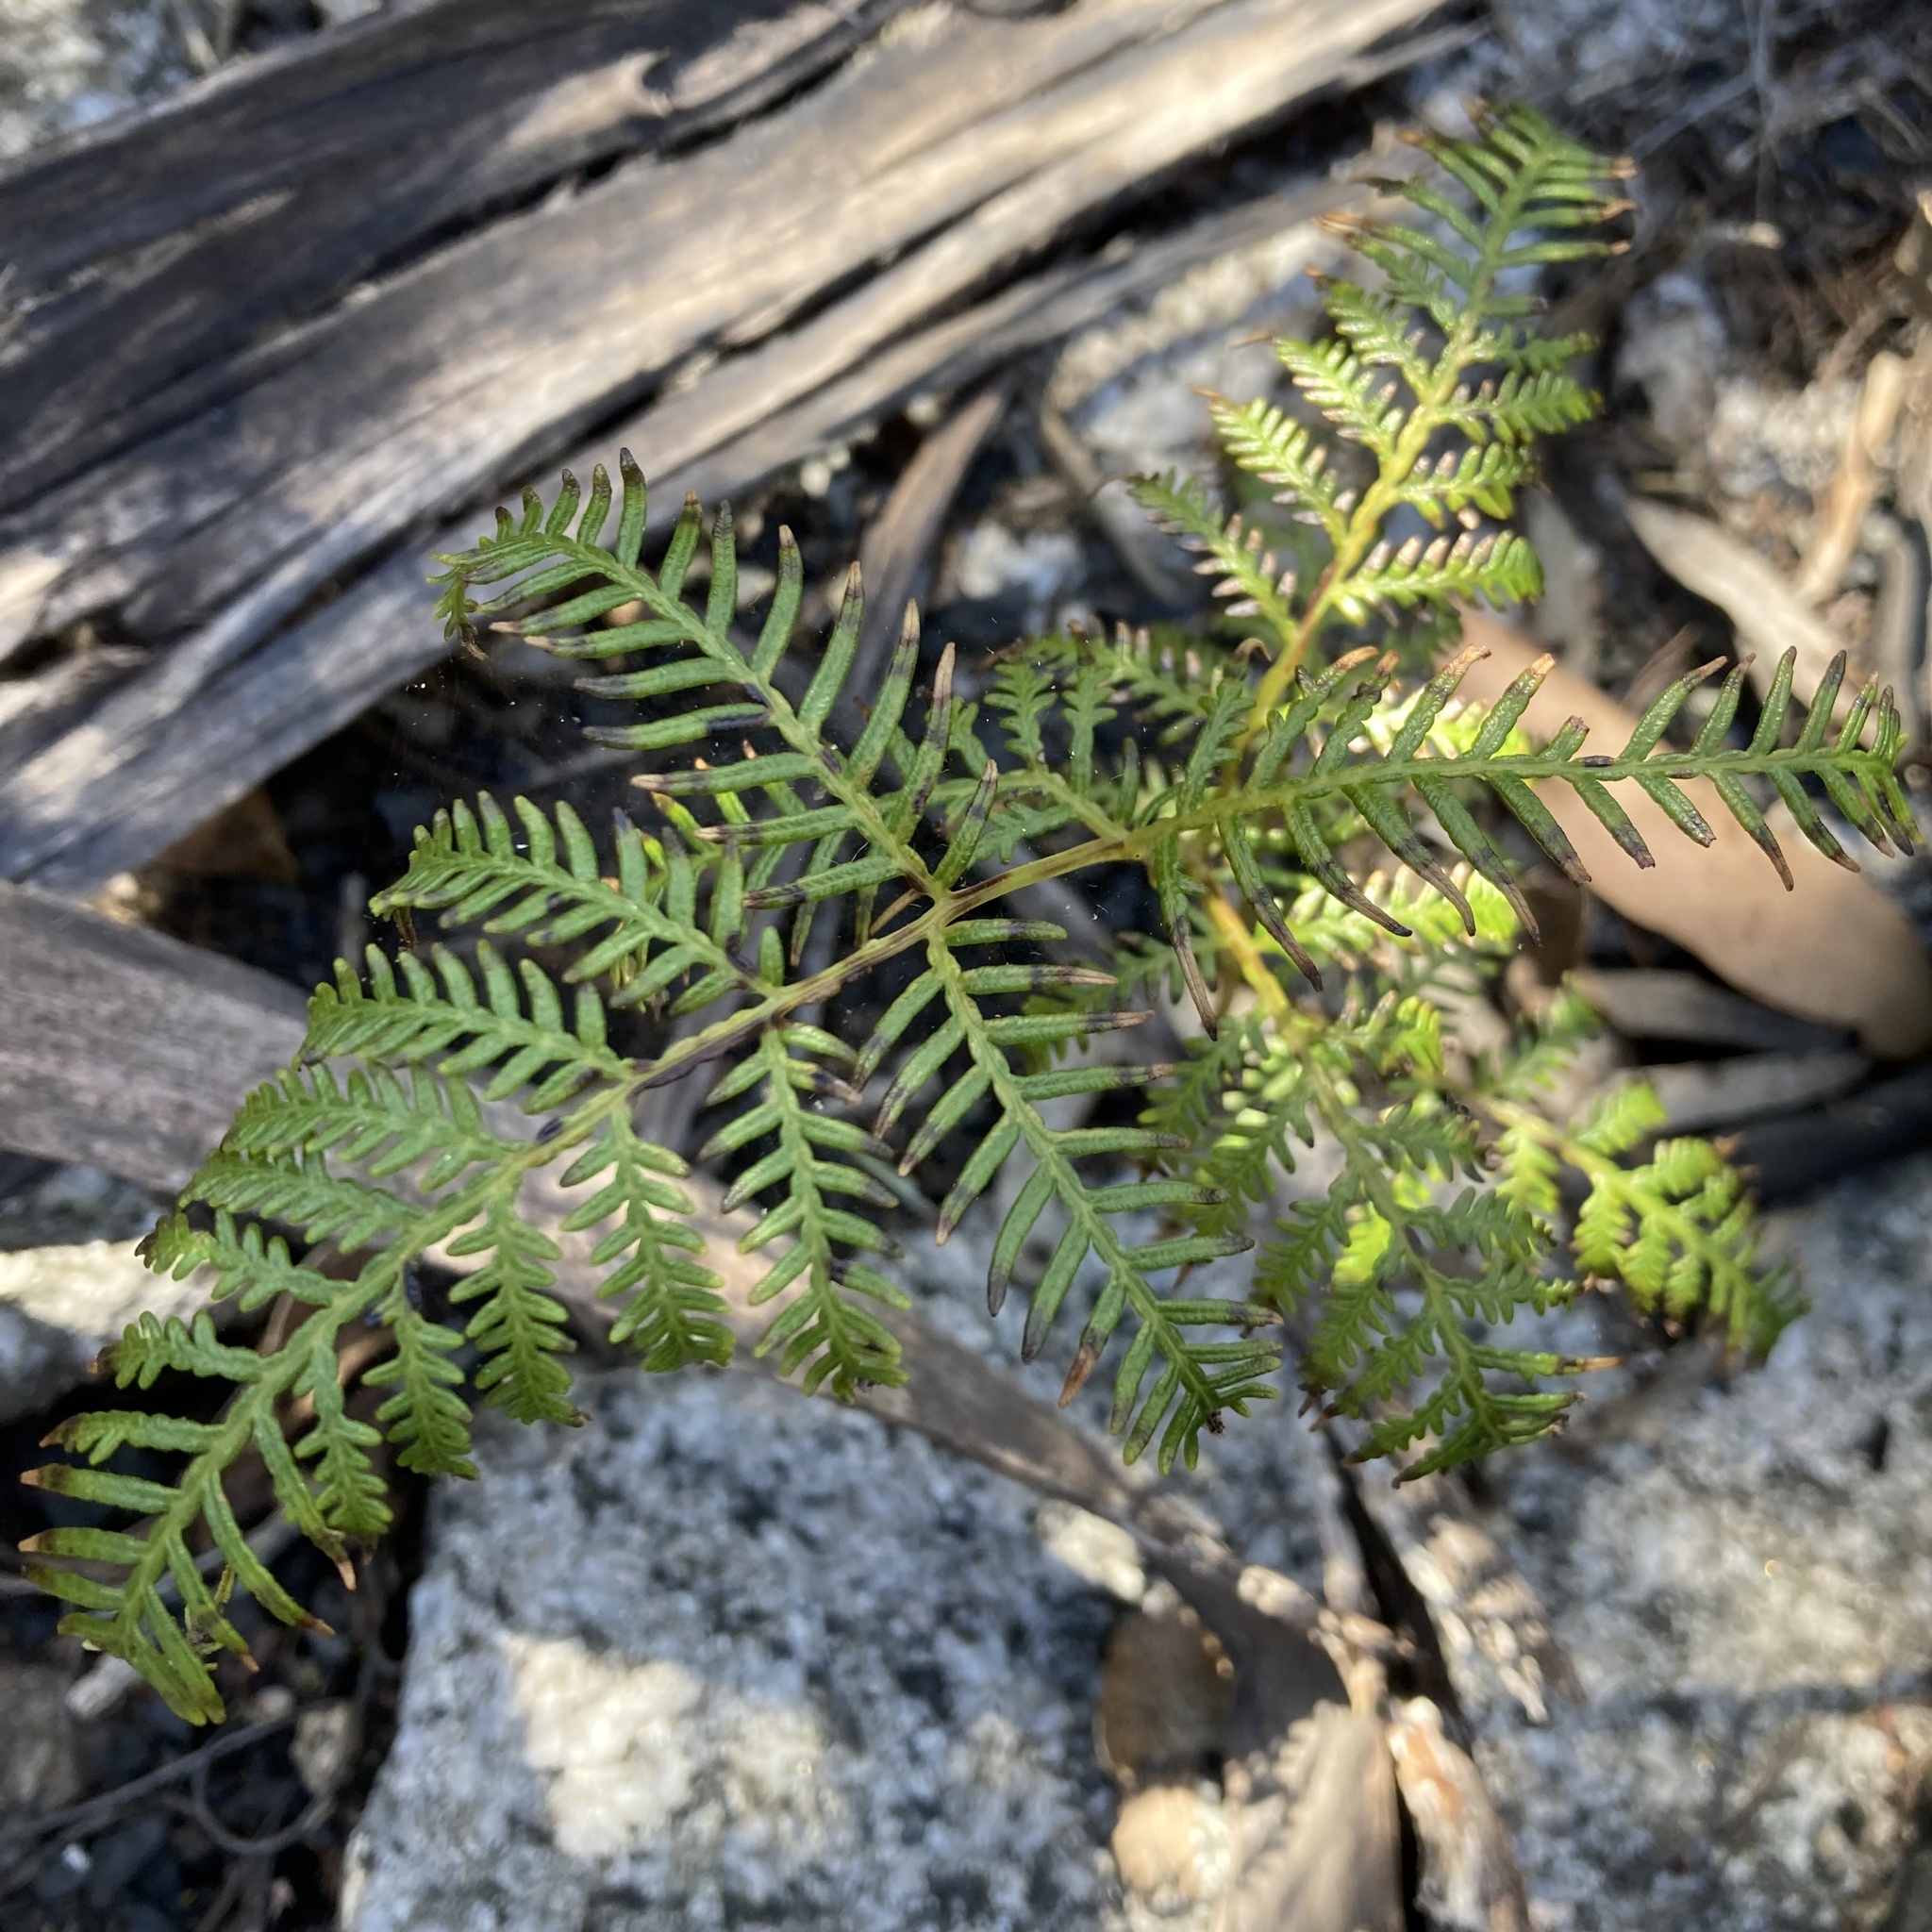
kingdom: Plantae
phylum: Tracheophyta
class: Polypodiopsida
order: Polypodiales
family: Dennstaedtiaceae
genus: Pteridium
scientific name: Pteridium esculentum
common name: Bracken fern
